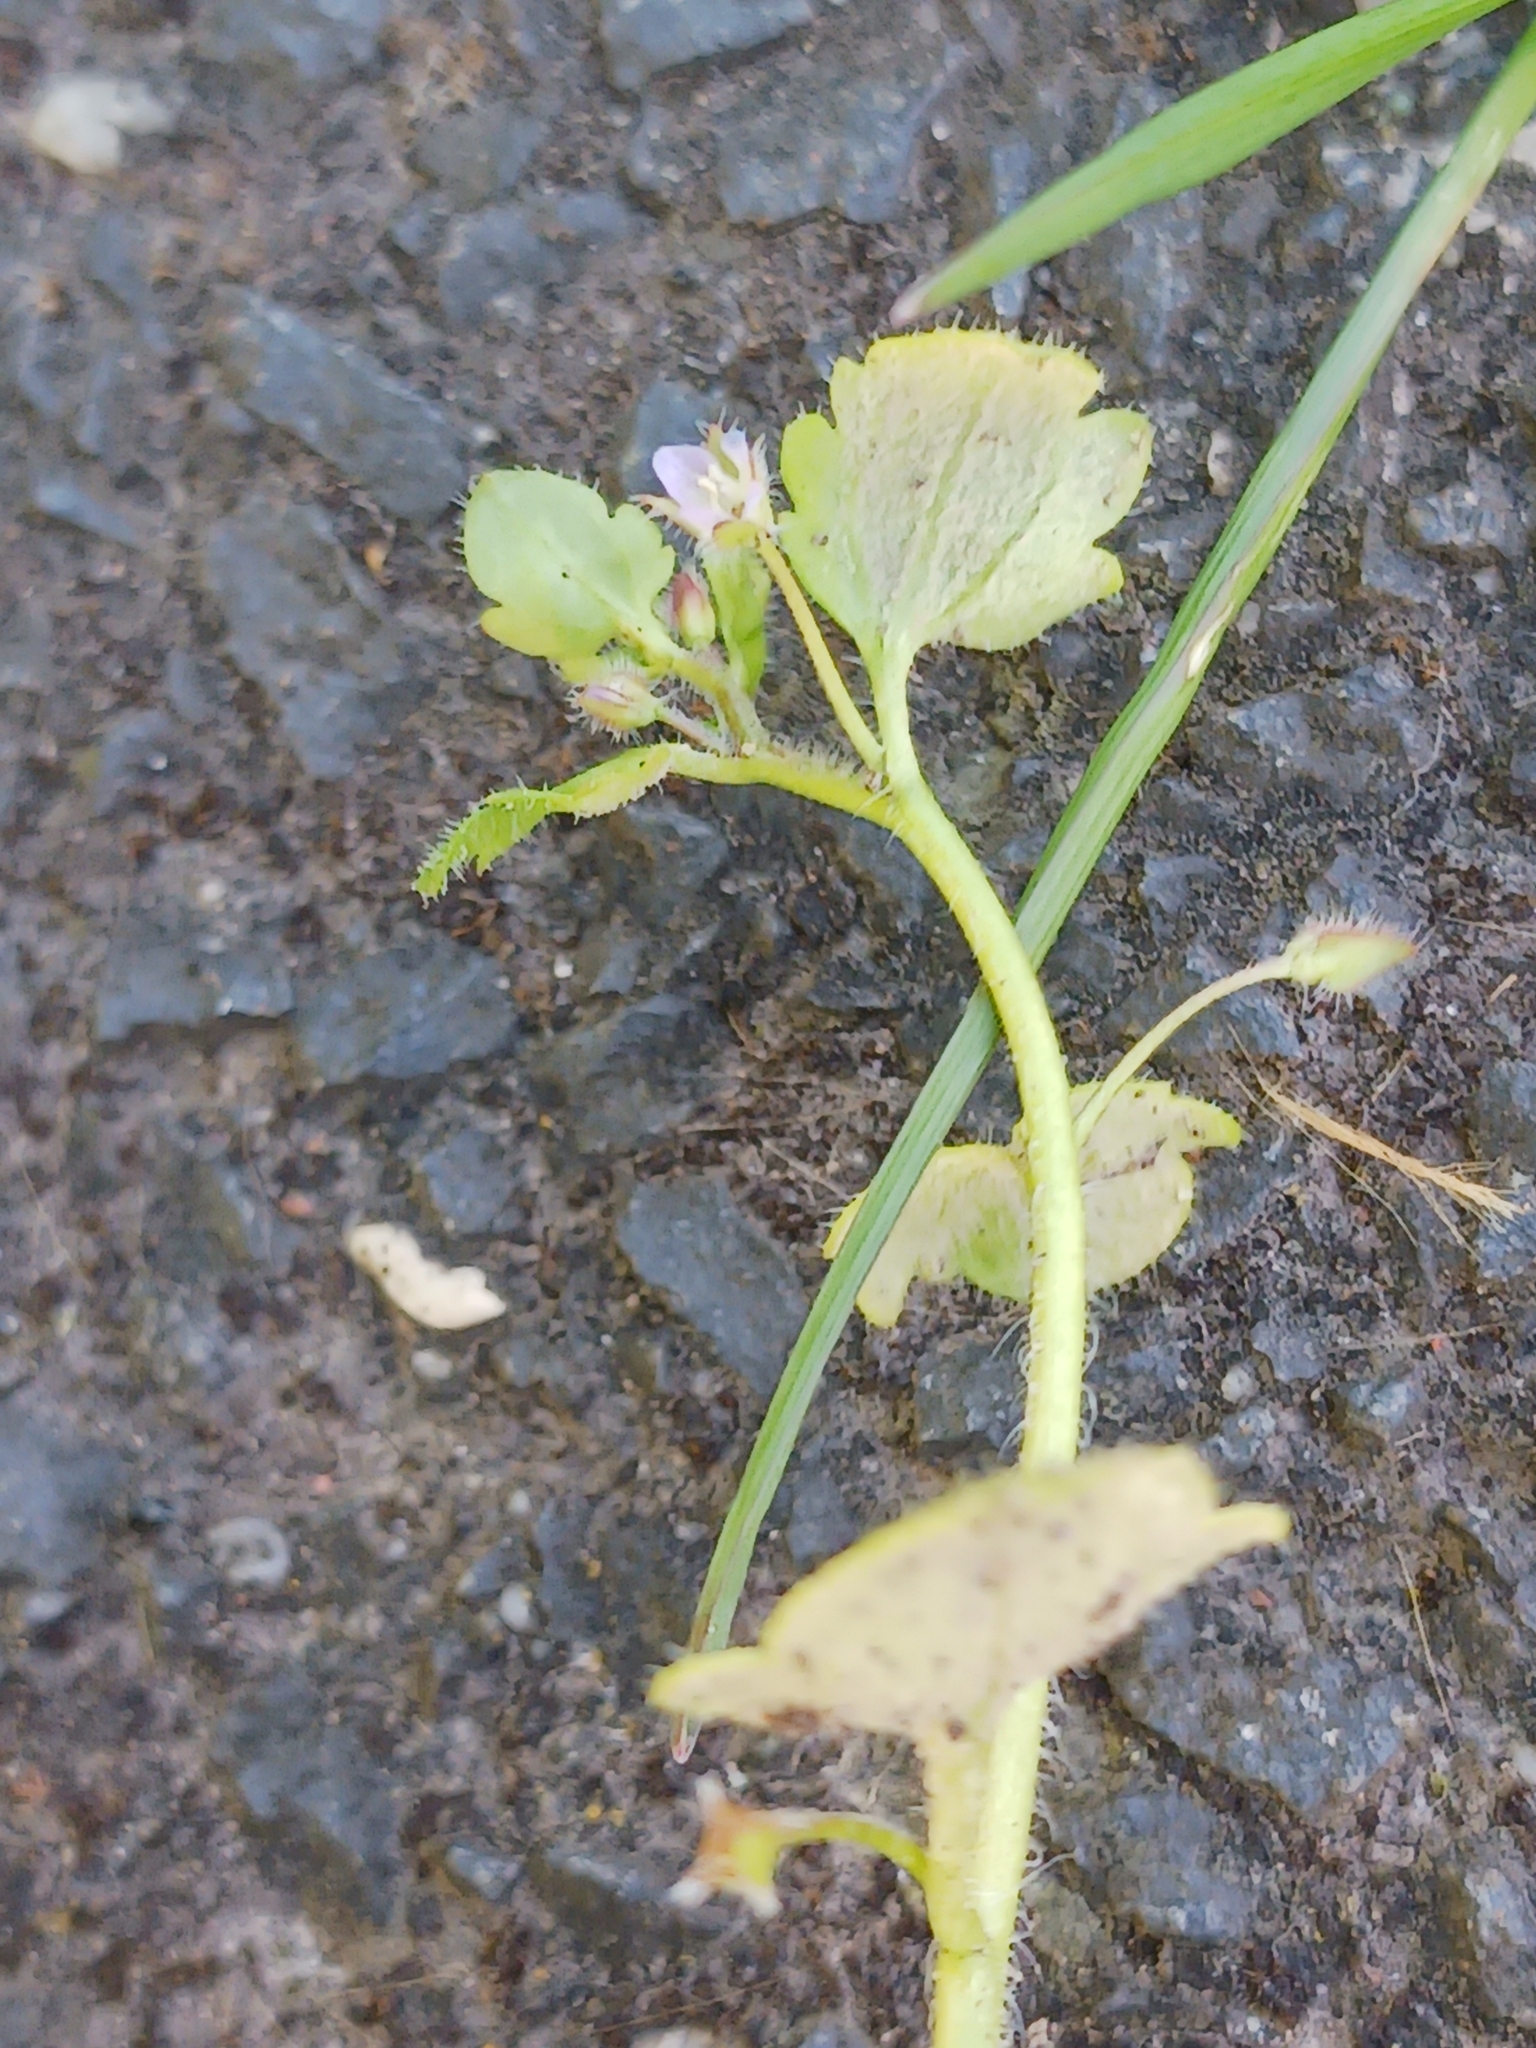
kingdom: Chromista
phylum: Oomycota
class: Peronosporea
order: Peronosporales
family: Peronosporaceae
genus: Peronospora
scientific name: Peronospora arvensis
